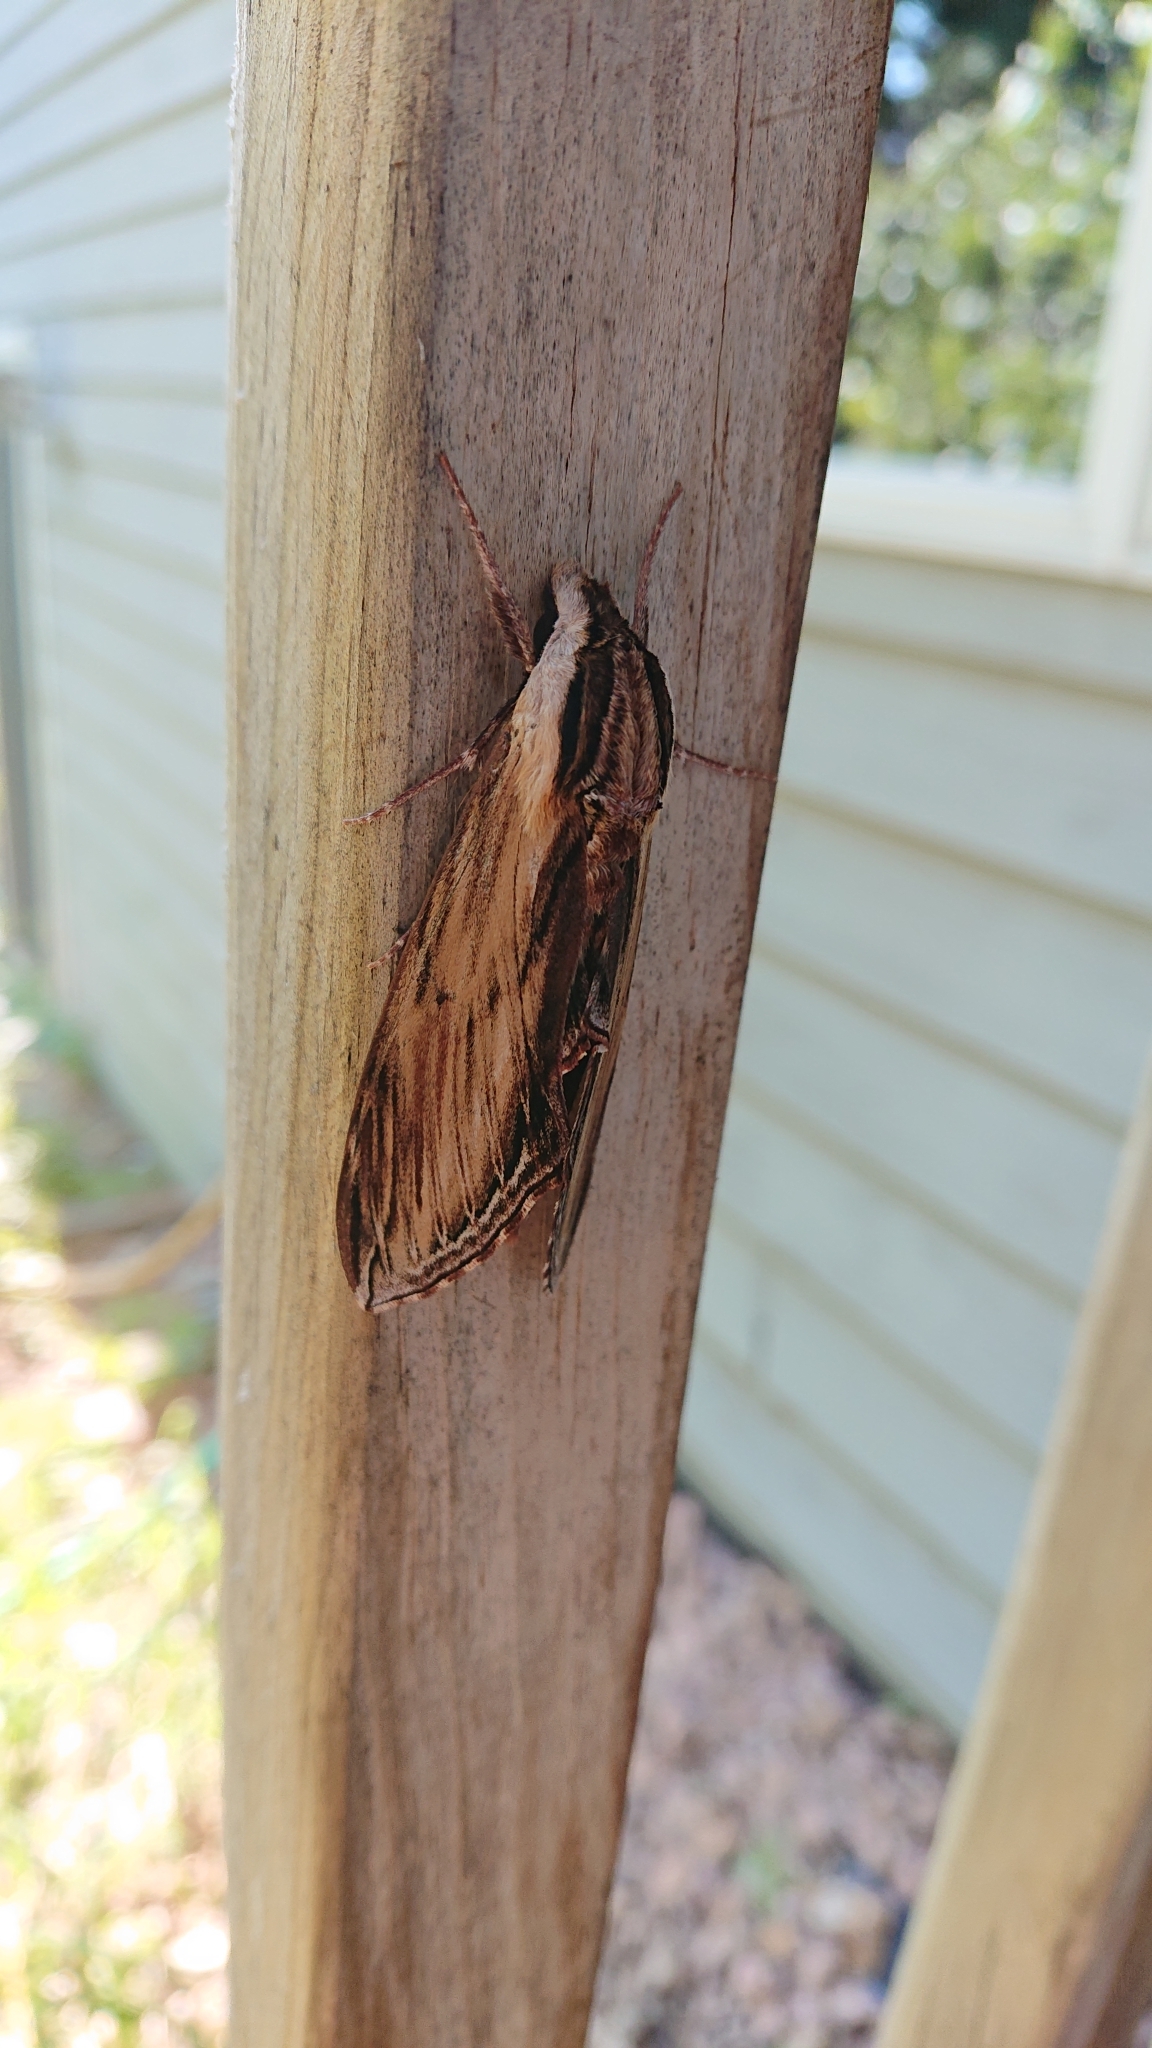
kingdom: Animalia
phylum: Arthropoda
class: Insecta
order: Lepidoptera
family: Sphingidae
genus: Sphinx
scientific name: Sphinx kalmiae
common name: Laurel sphinx
